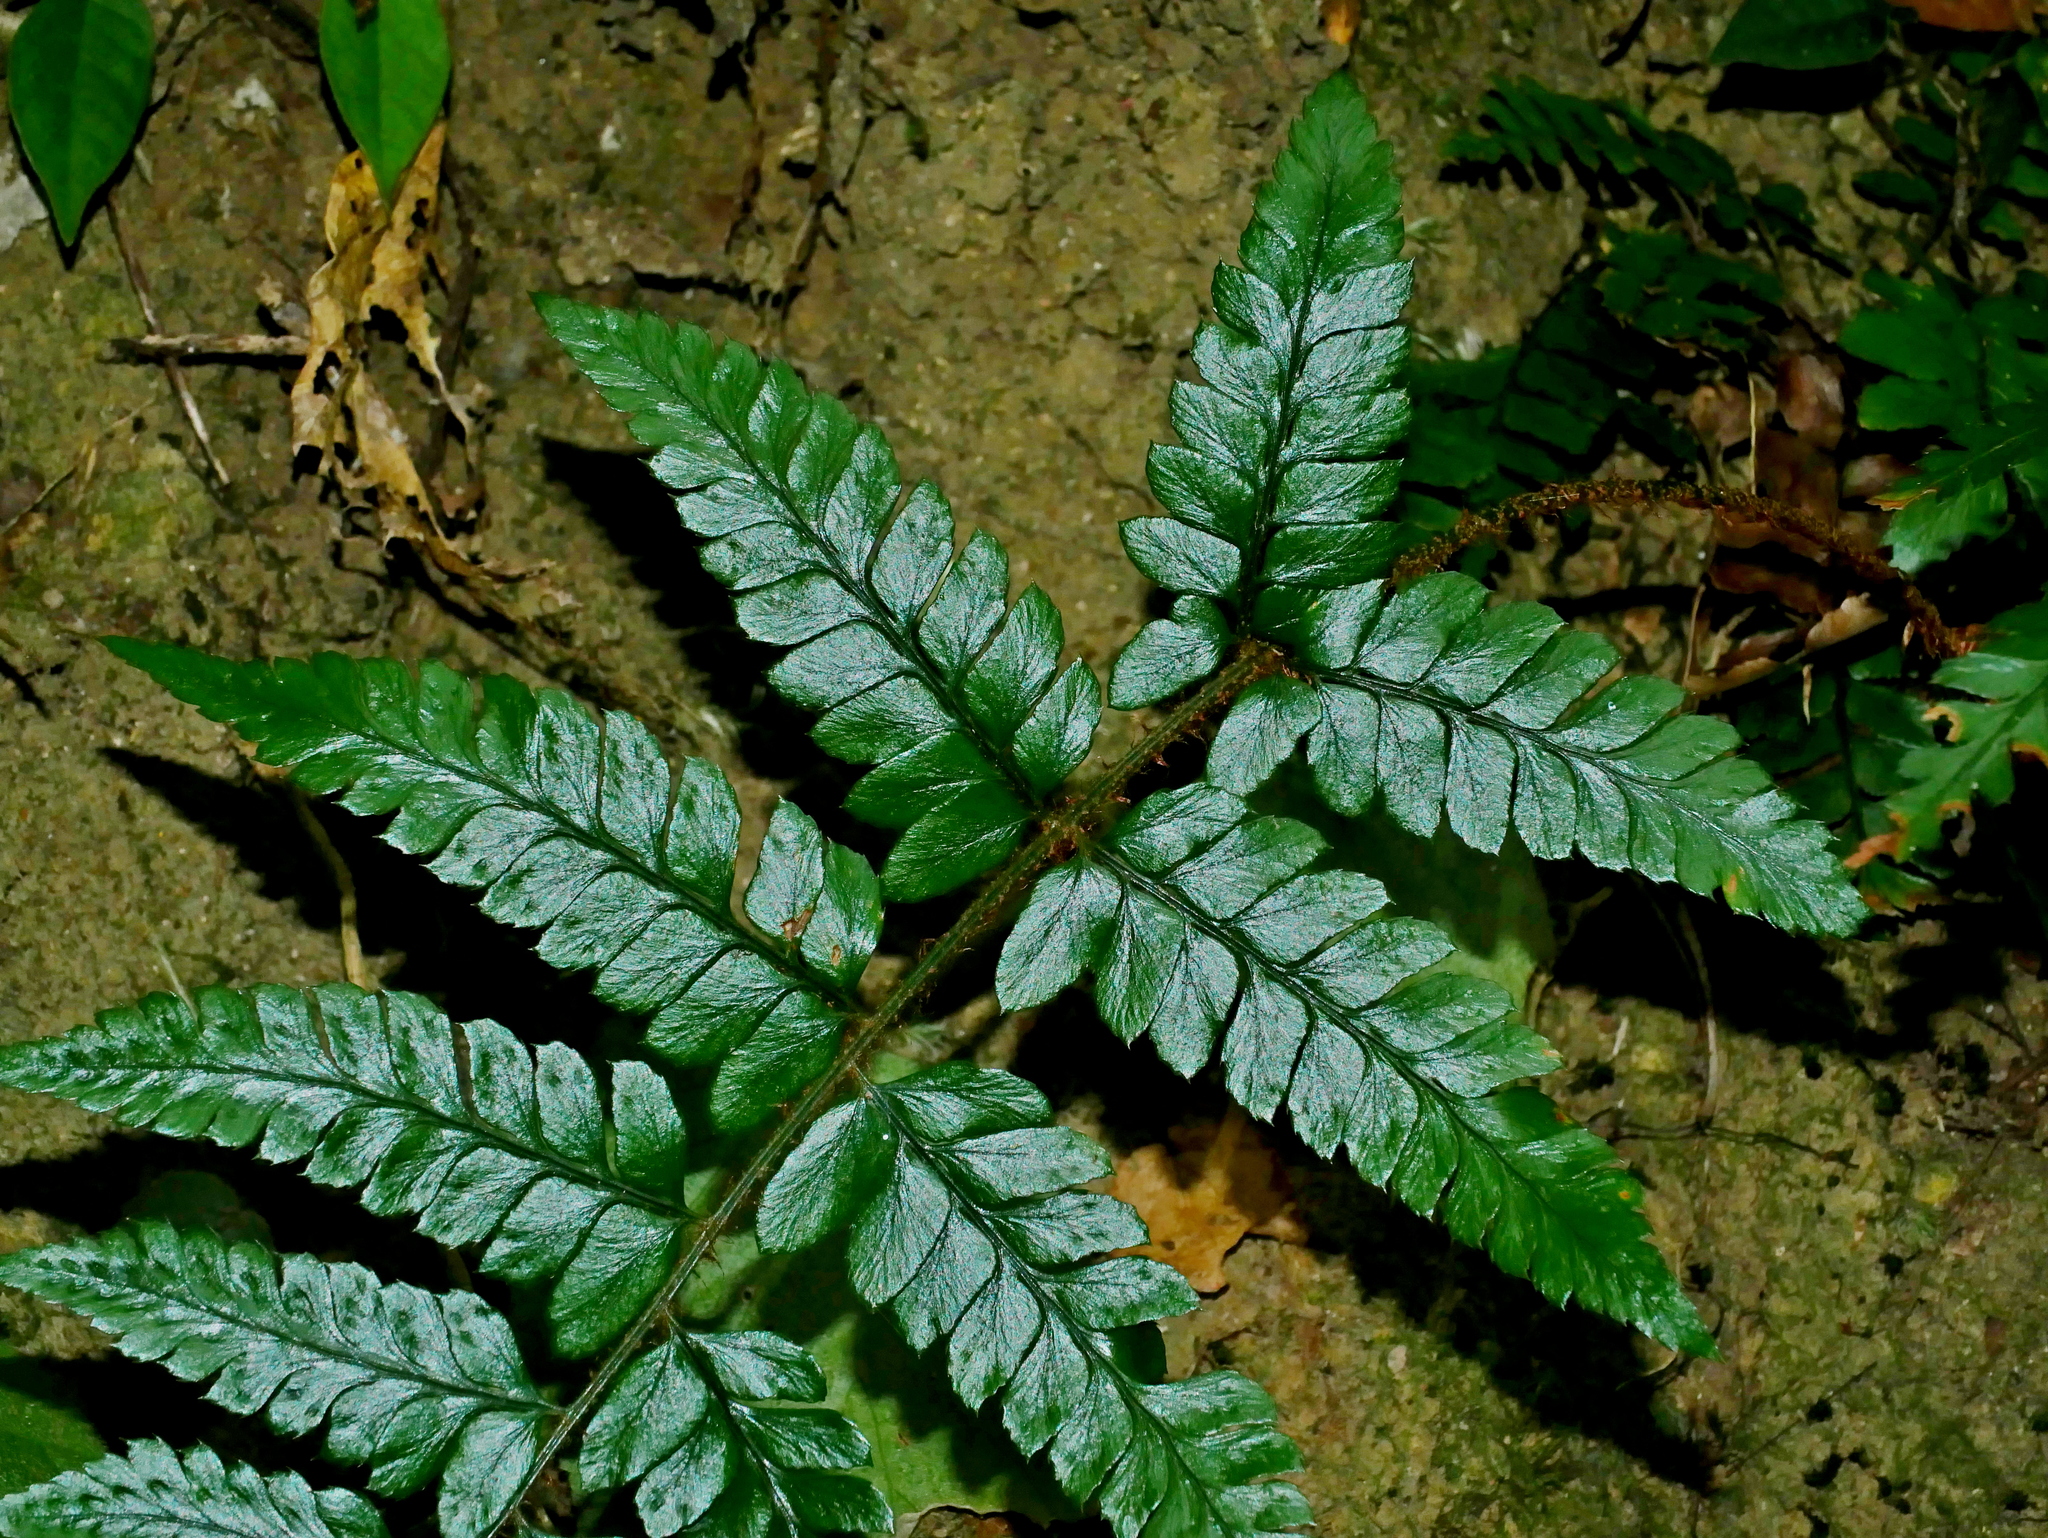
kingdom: Plantae
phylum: Tracheophyta
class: Polypodiopsida
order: Polypodiales
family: Dryopteridaceae
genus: Polystichum
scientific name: Polystichum biaristatum
